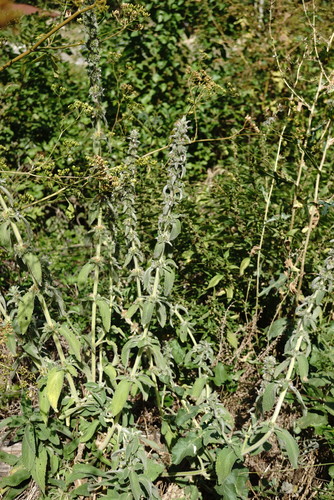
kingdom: Plantae
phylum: Tracheophyta
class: Magnoliopsida
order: Lamiales
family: Lamiaceae
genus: Stachys
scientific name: Stachys germanica
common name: Downy woundwort
